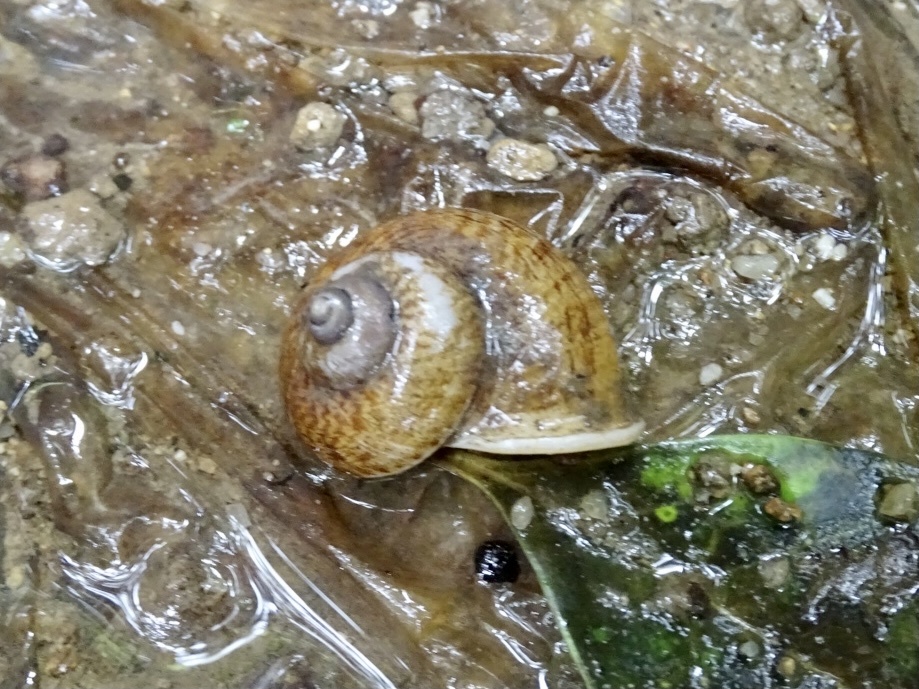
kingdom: Animalia
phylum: Mollusca
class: Gastropoda
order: Architaenioglossa
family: Cyclophoridae
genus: Cyclophorus
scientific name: Cyclophorus punctatus
